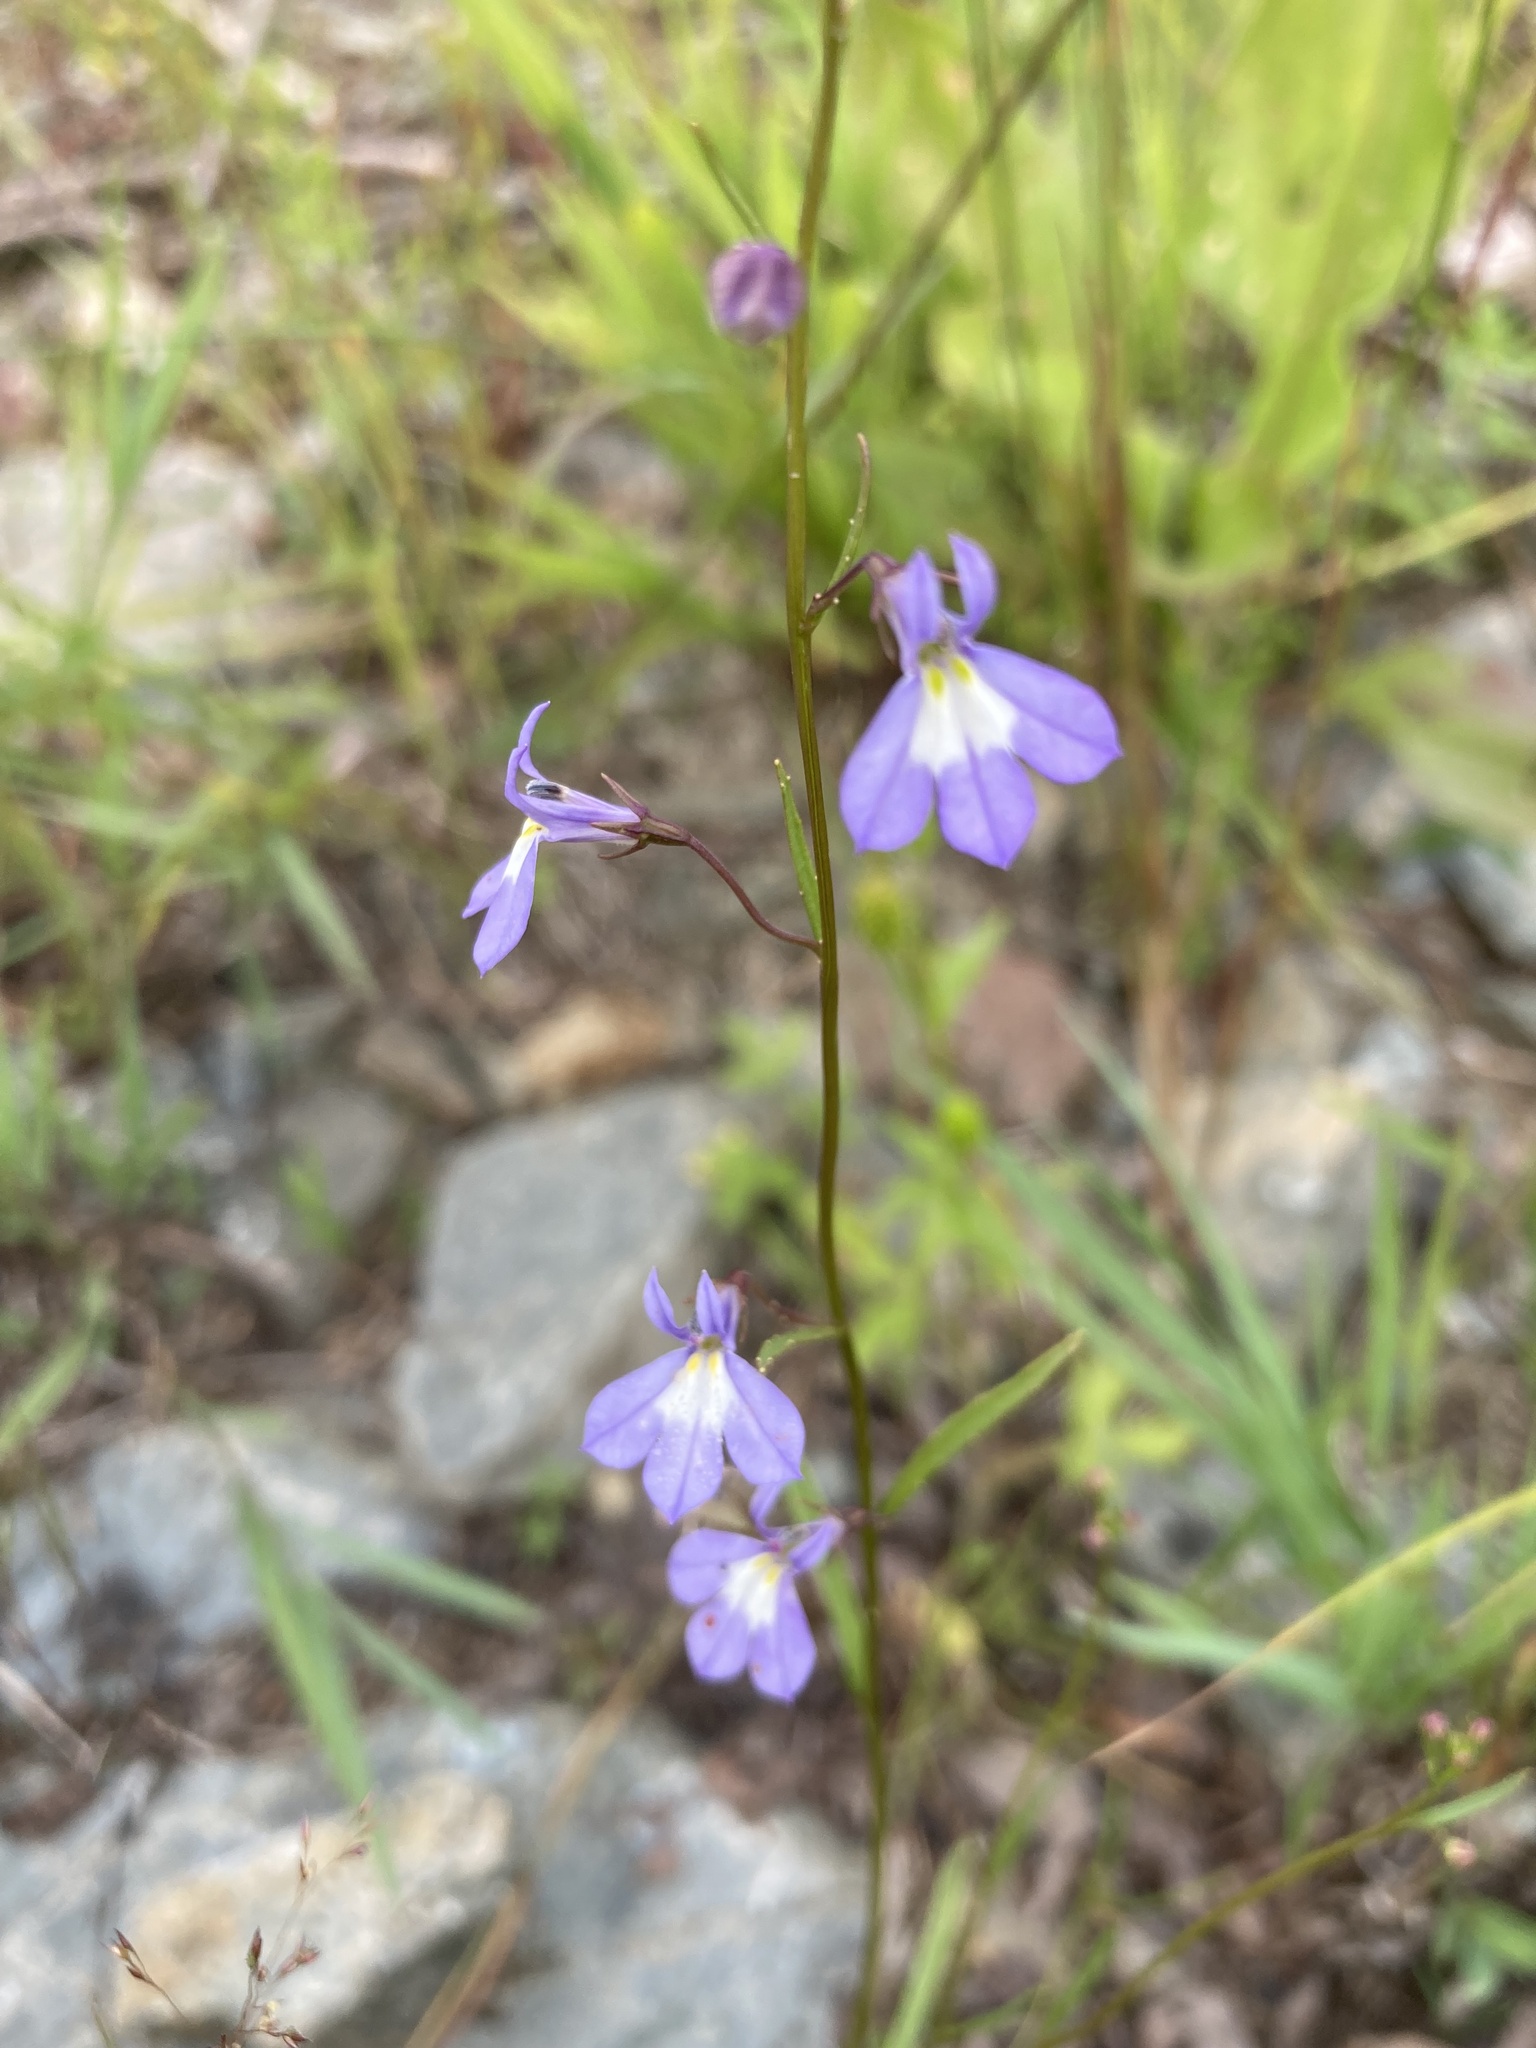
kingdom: Plantae
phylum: Tracheophyta
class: Magnoliopsida
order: Asterales
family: Campanulaceae
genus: Lobelia
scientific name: Lobelia kalmii
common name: Kalm's lobelia
